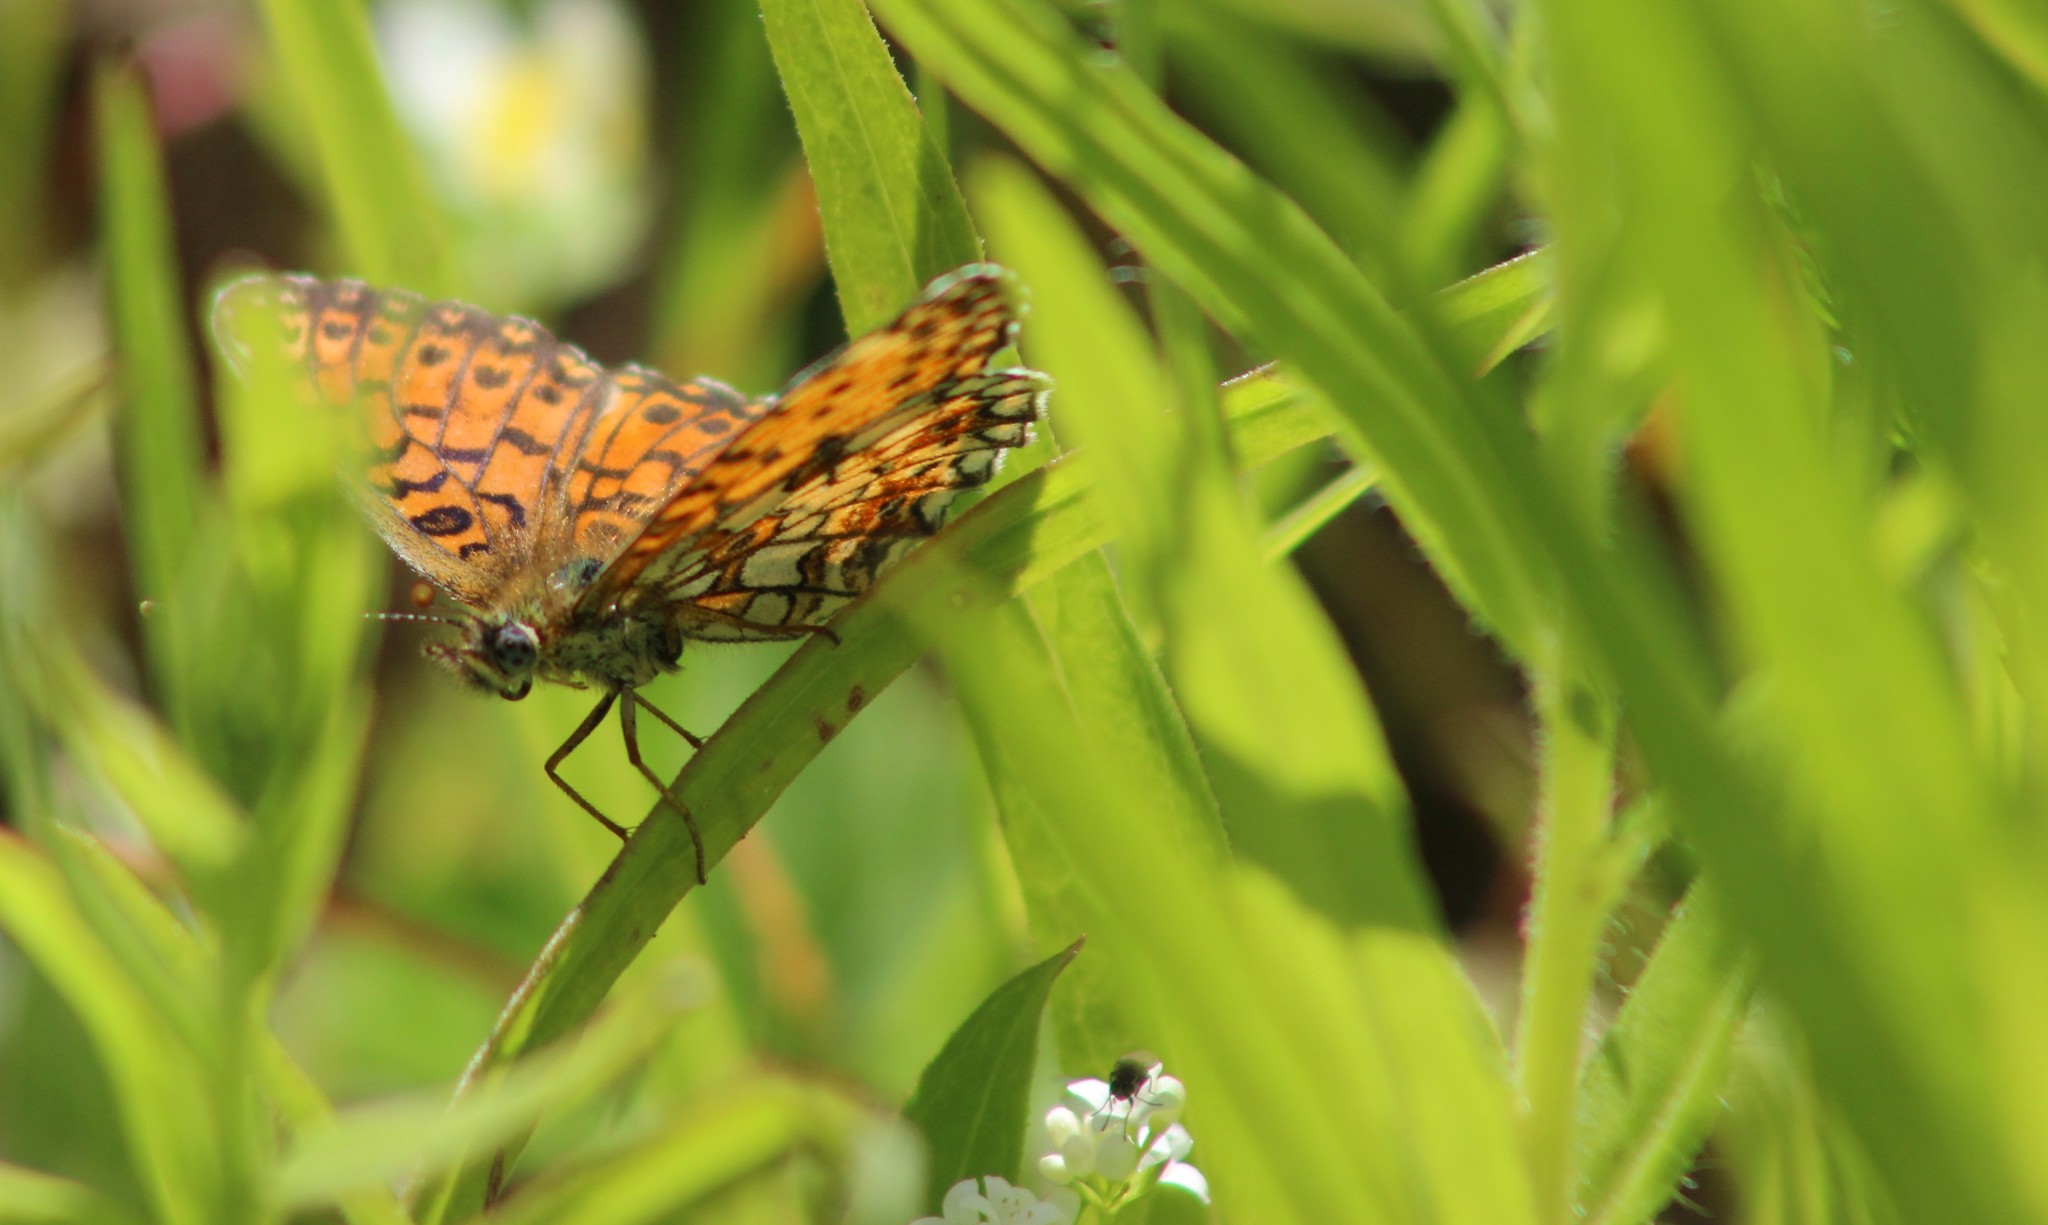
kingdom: Animalia
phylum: Arthropoda
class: Insecta
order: Lepidoptera
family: Nymphalidae
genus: Boloria
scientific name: Boloria selene
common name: Small pearl-bordered fritillary
